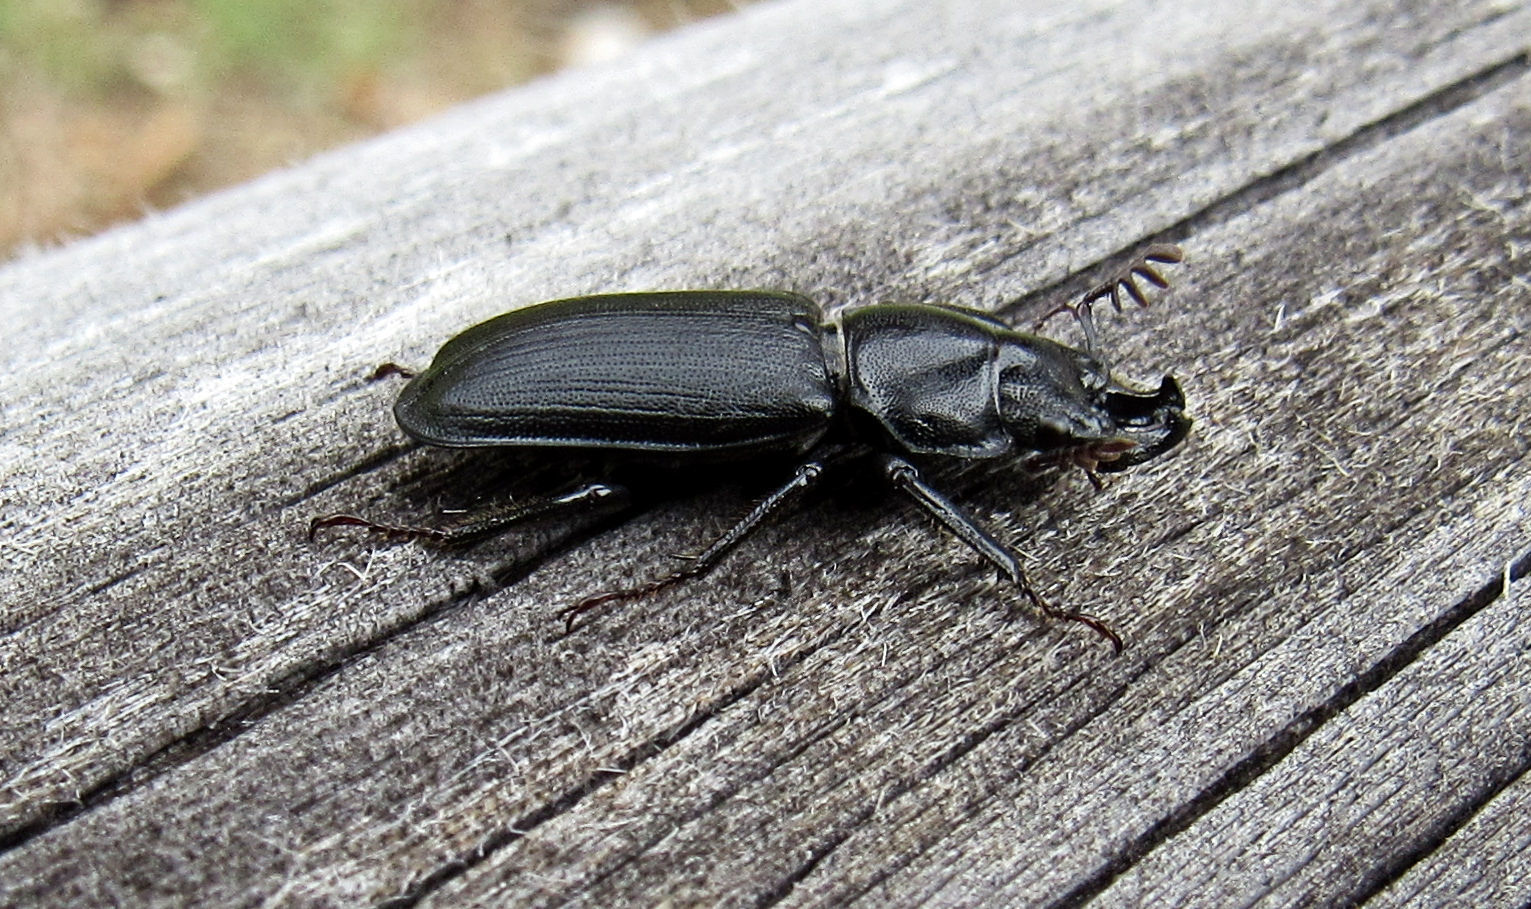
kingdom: Animalia
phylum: Arthropoda
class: Insecta
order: Coleoptera
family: Lucanidae
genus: Platycerus
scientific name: Platycerus marginalis
